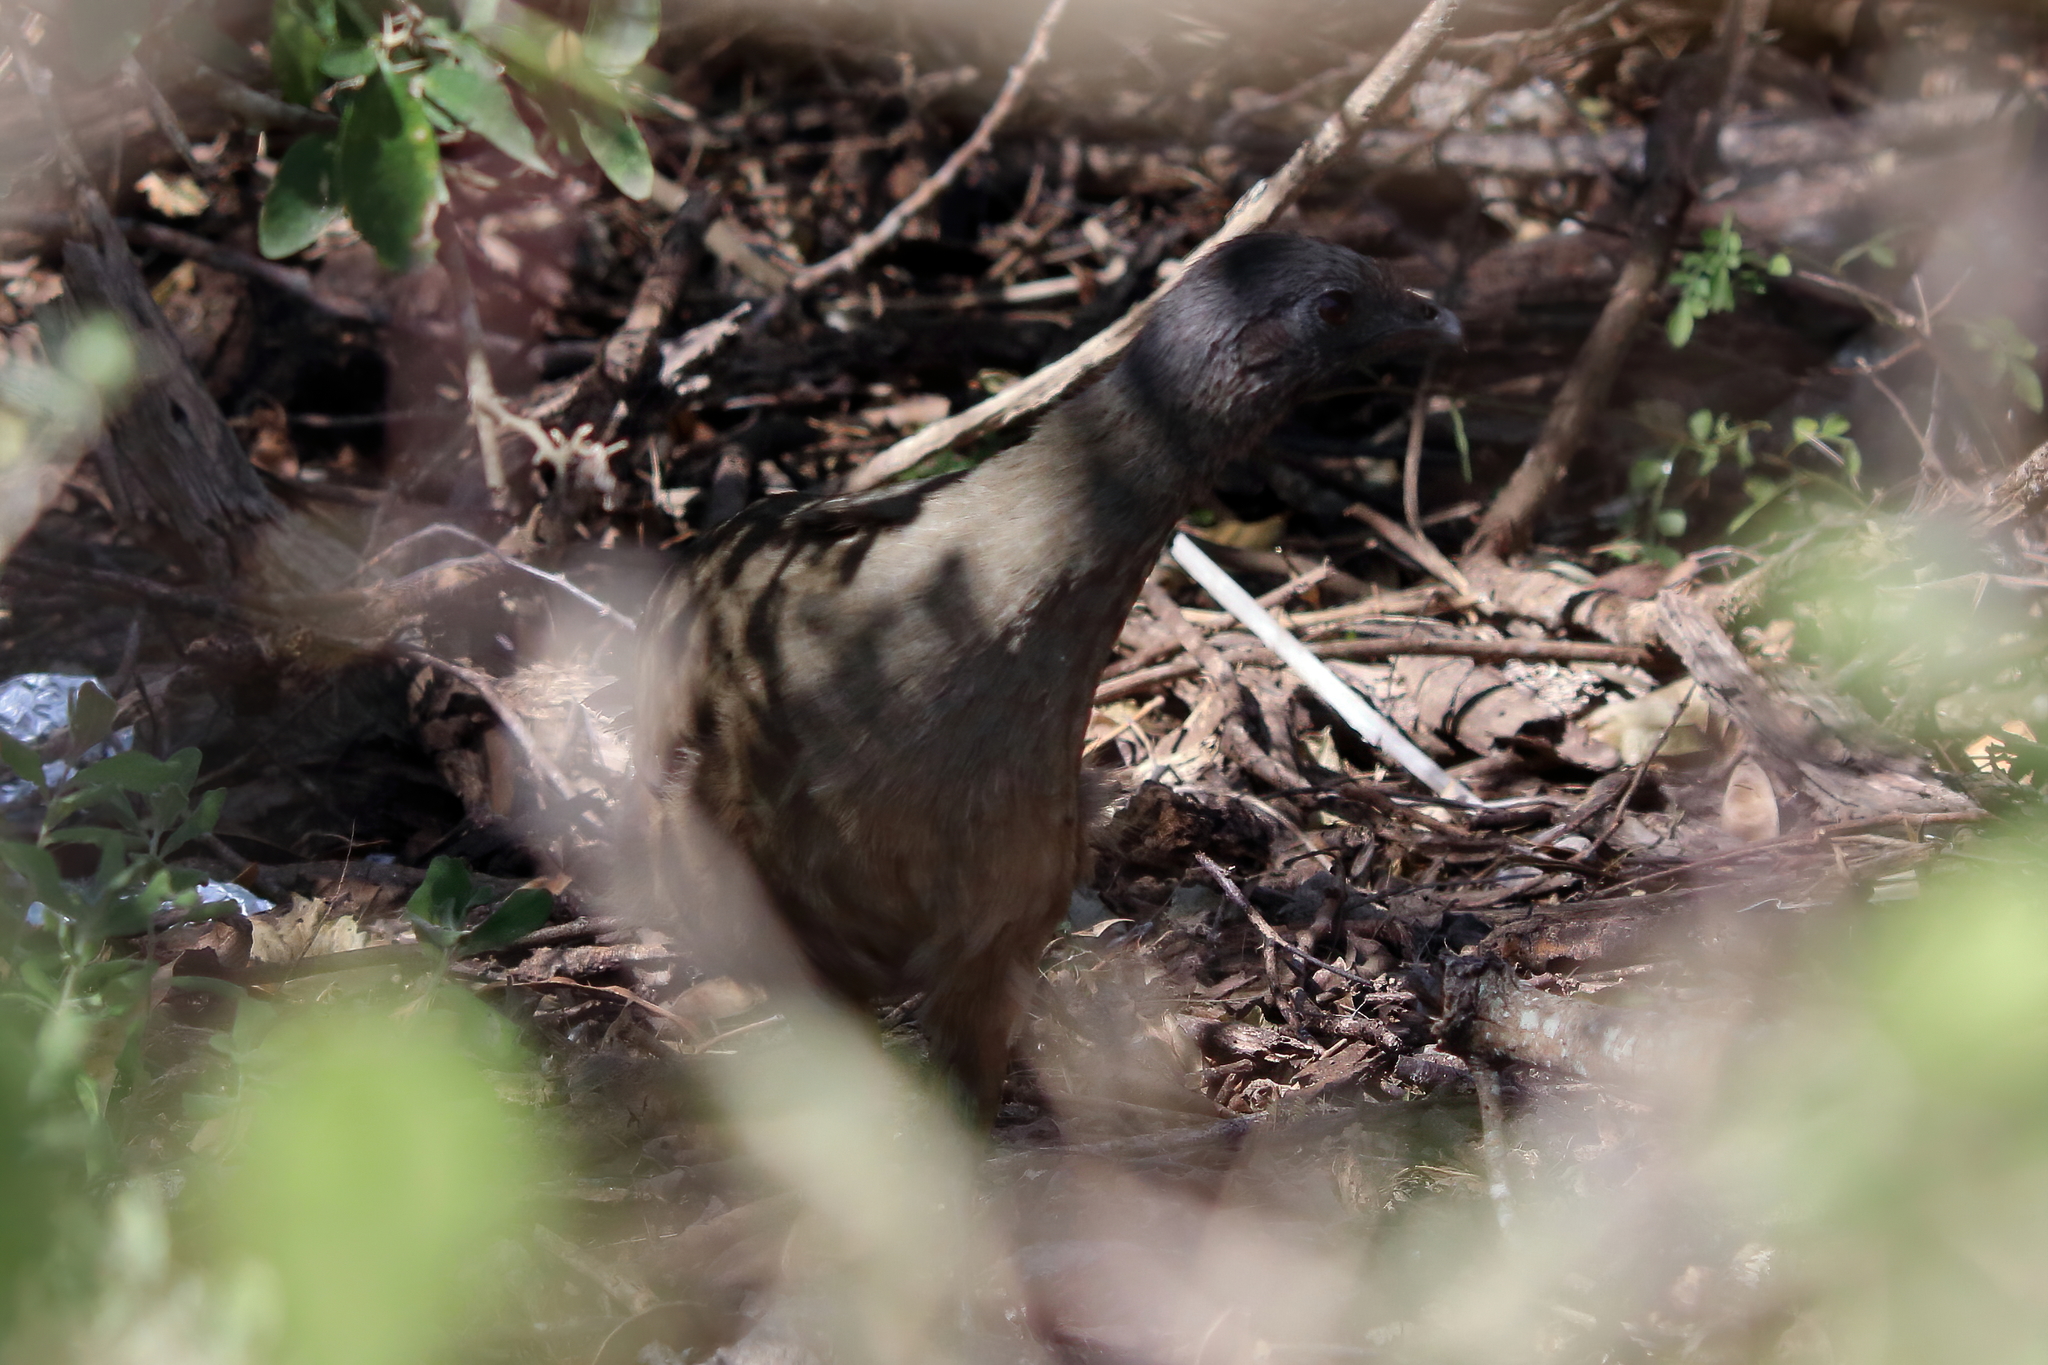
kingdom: Animalia
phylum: Chordata
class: Aves
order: Galliformes
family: Cracidae
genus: Ortalis
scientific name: Ortalis vetula
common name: Plain chachalaca
